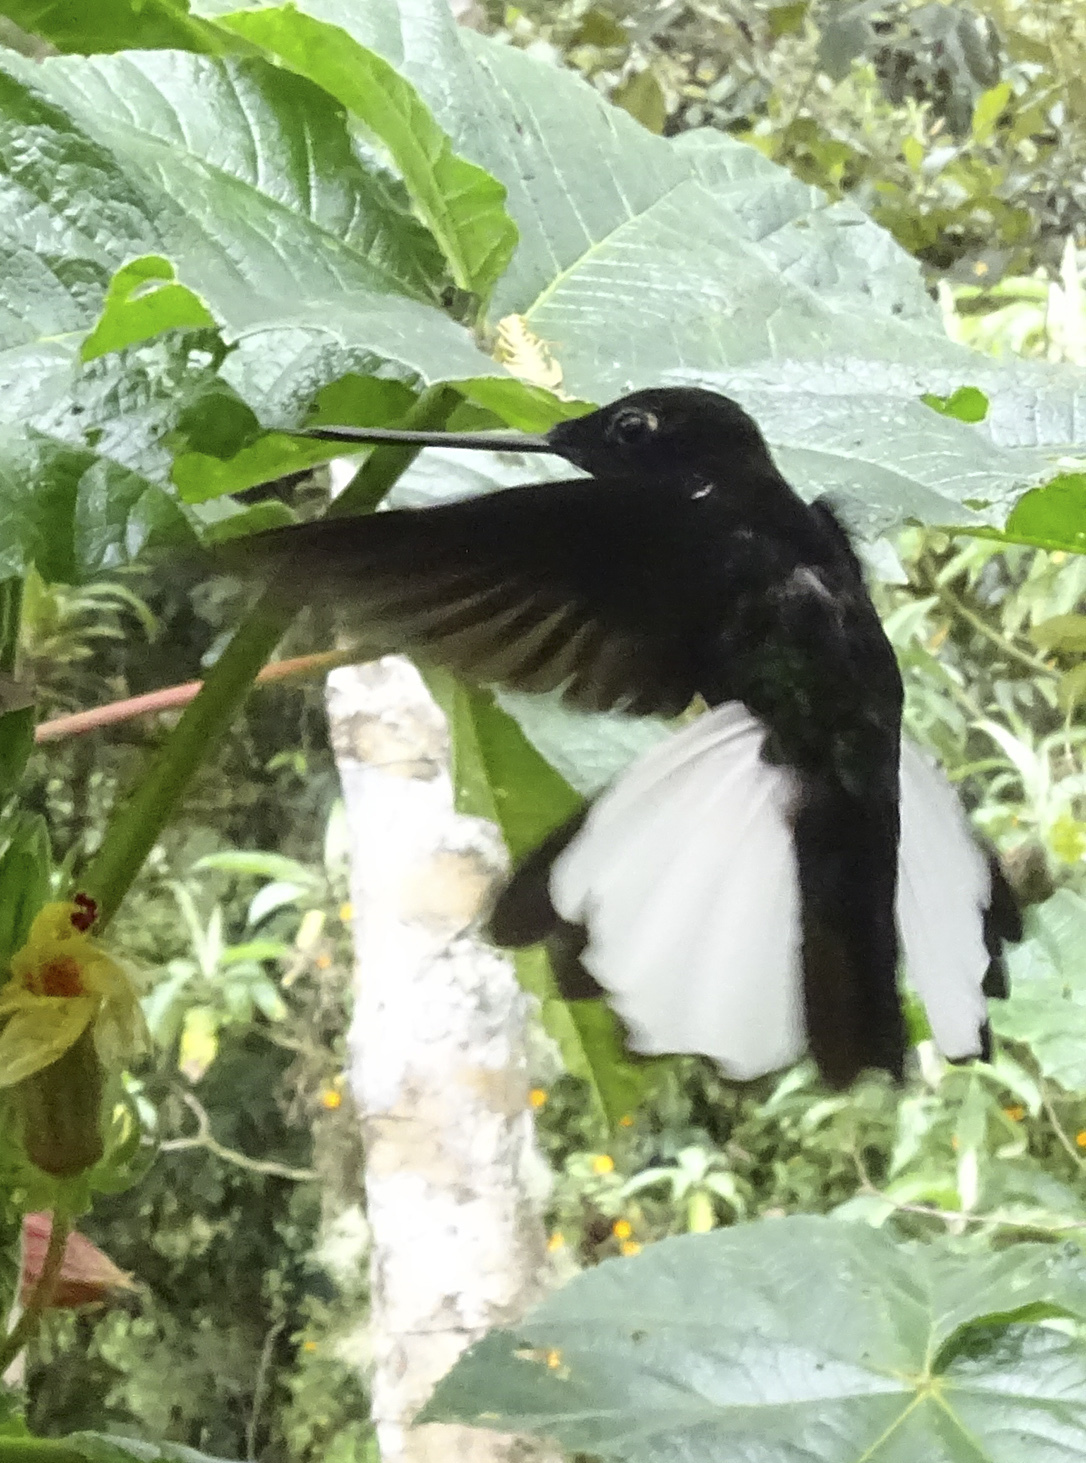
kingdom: Animalia
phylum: Chordata
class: Aves
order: Apodiformes
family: Trochilidae
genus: Coeligena
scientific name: Coeligena torquata
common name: Collared inca
